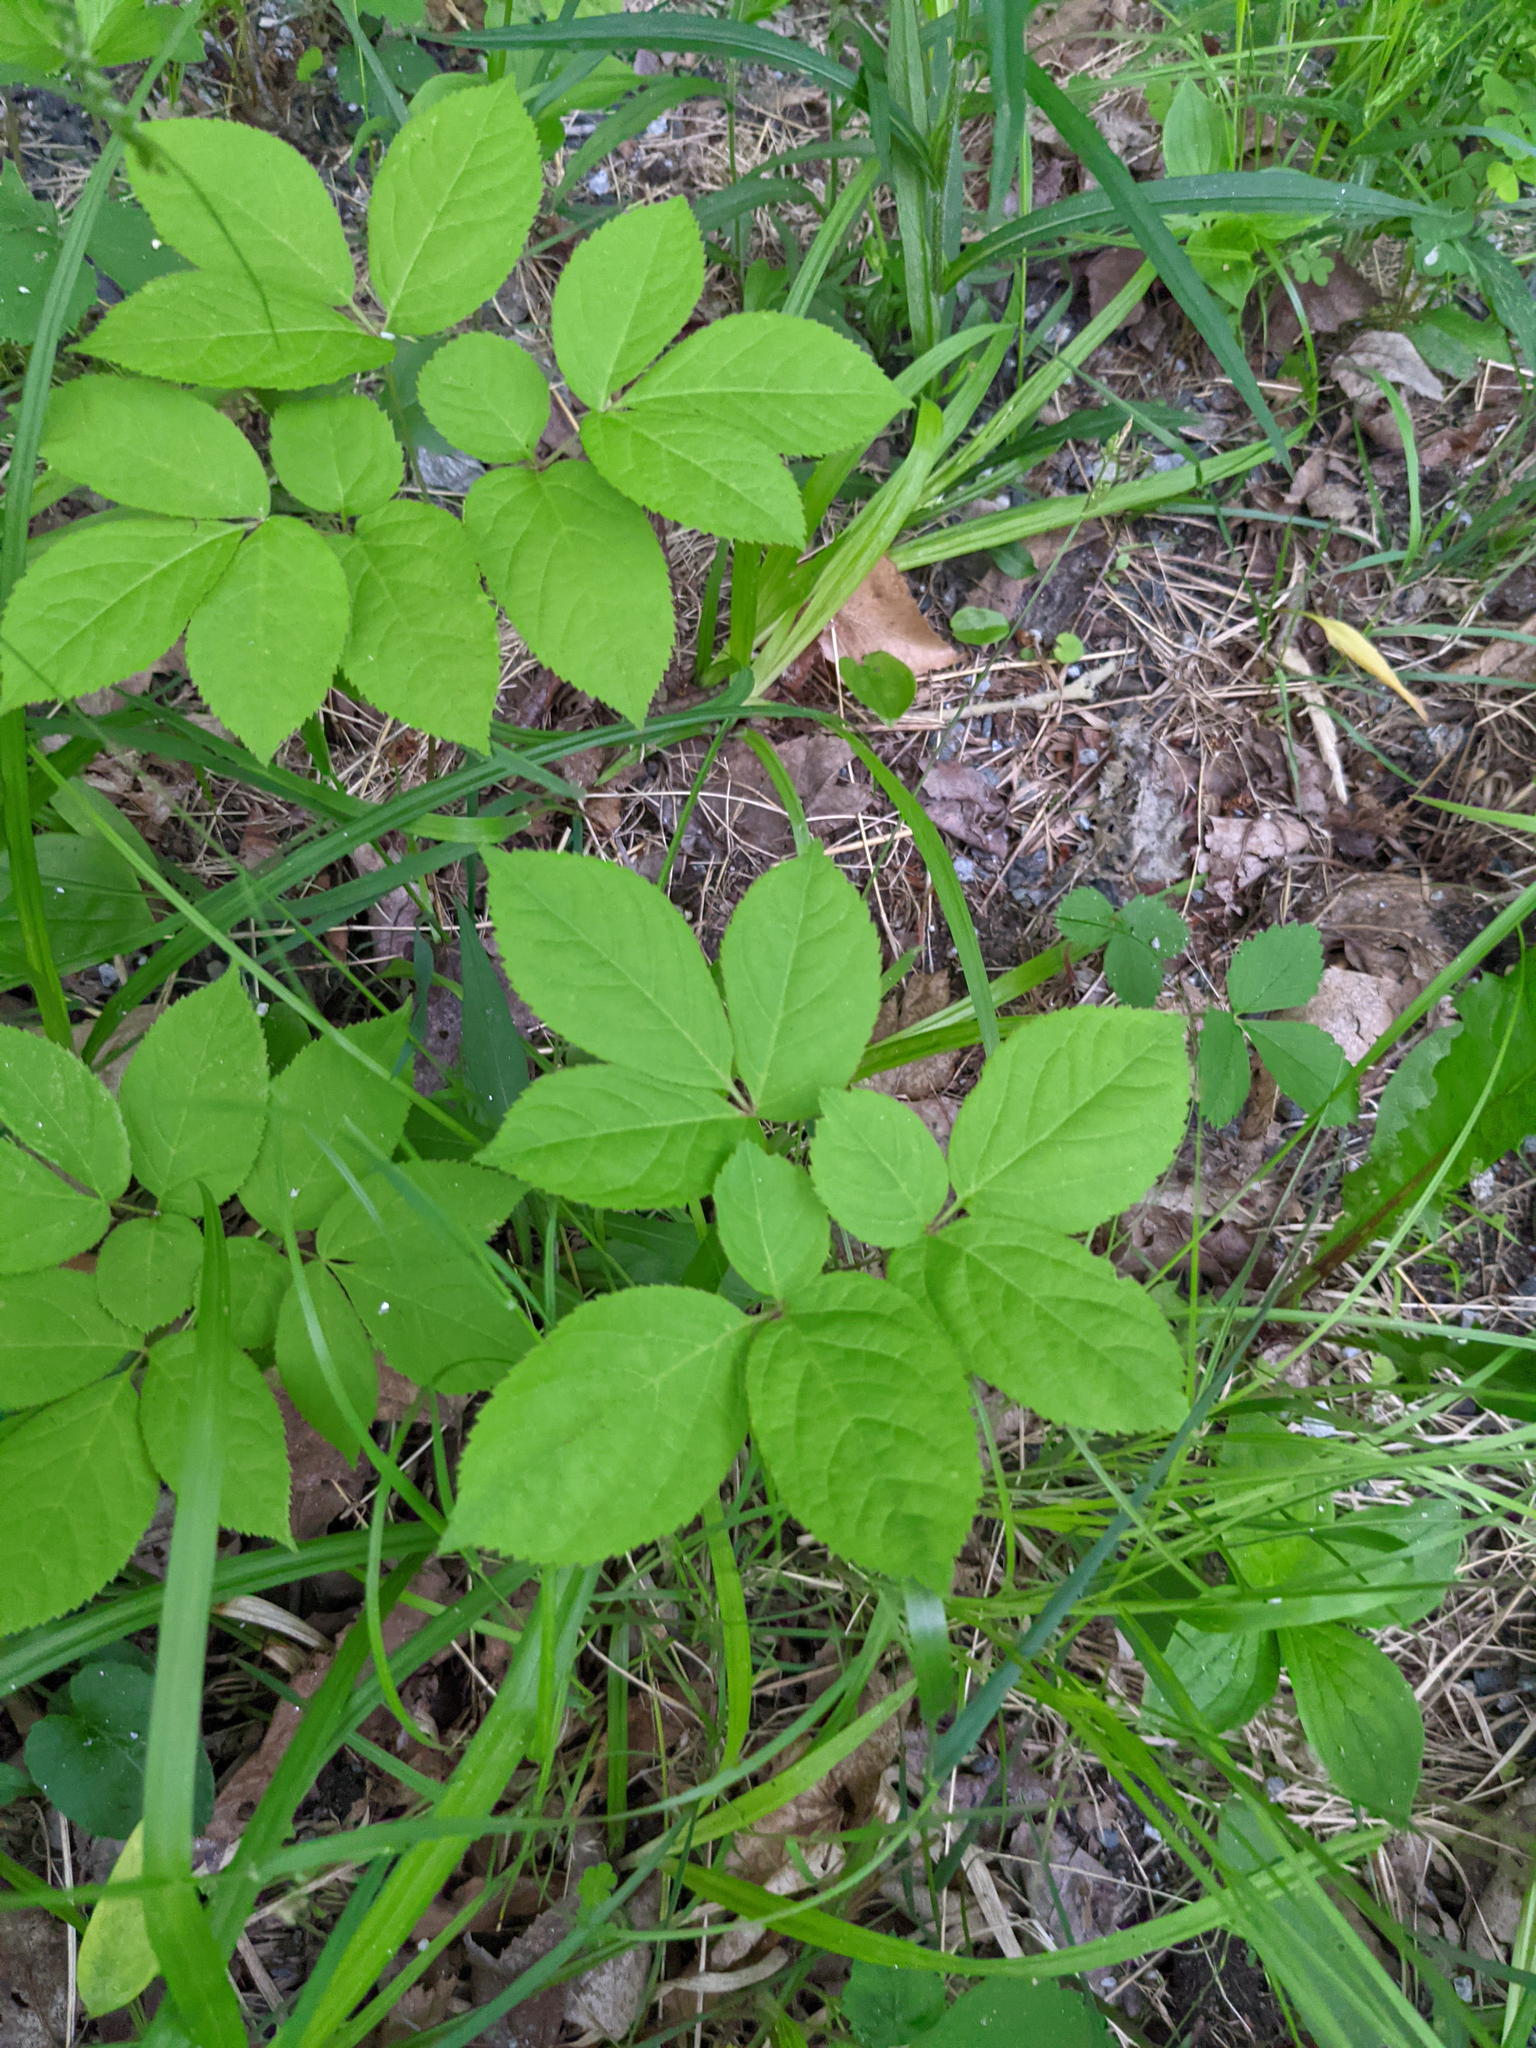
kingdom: Plantae
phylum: Tracheophyta
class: Magnoliopsida
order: Apiales
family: Araliaceae
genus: Aralia
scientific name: Aralia nudicaulis
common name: Wild sarsaparilla
